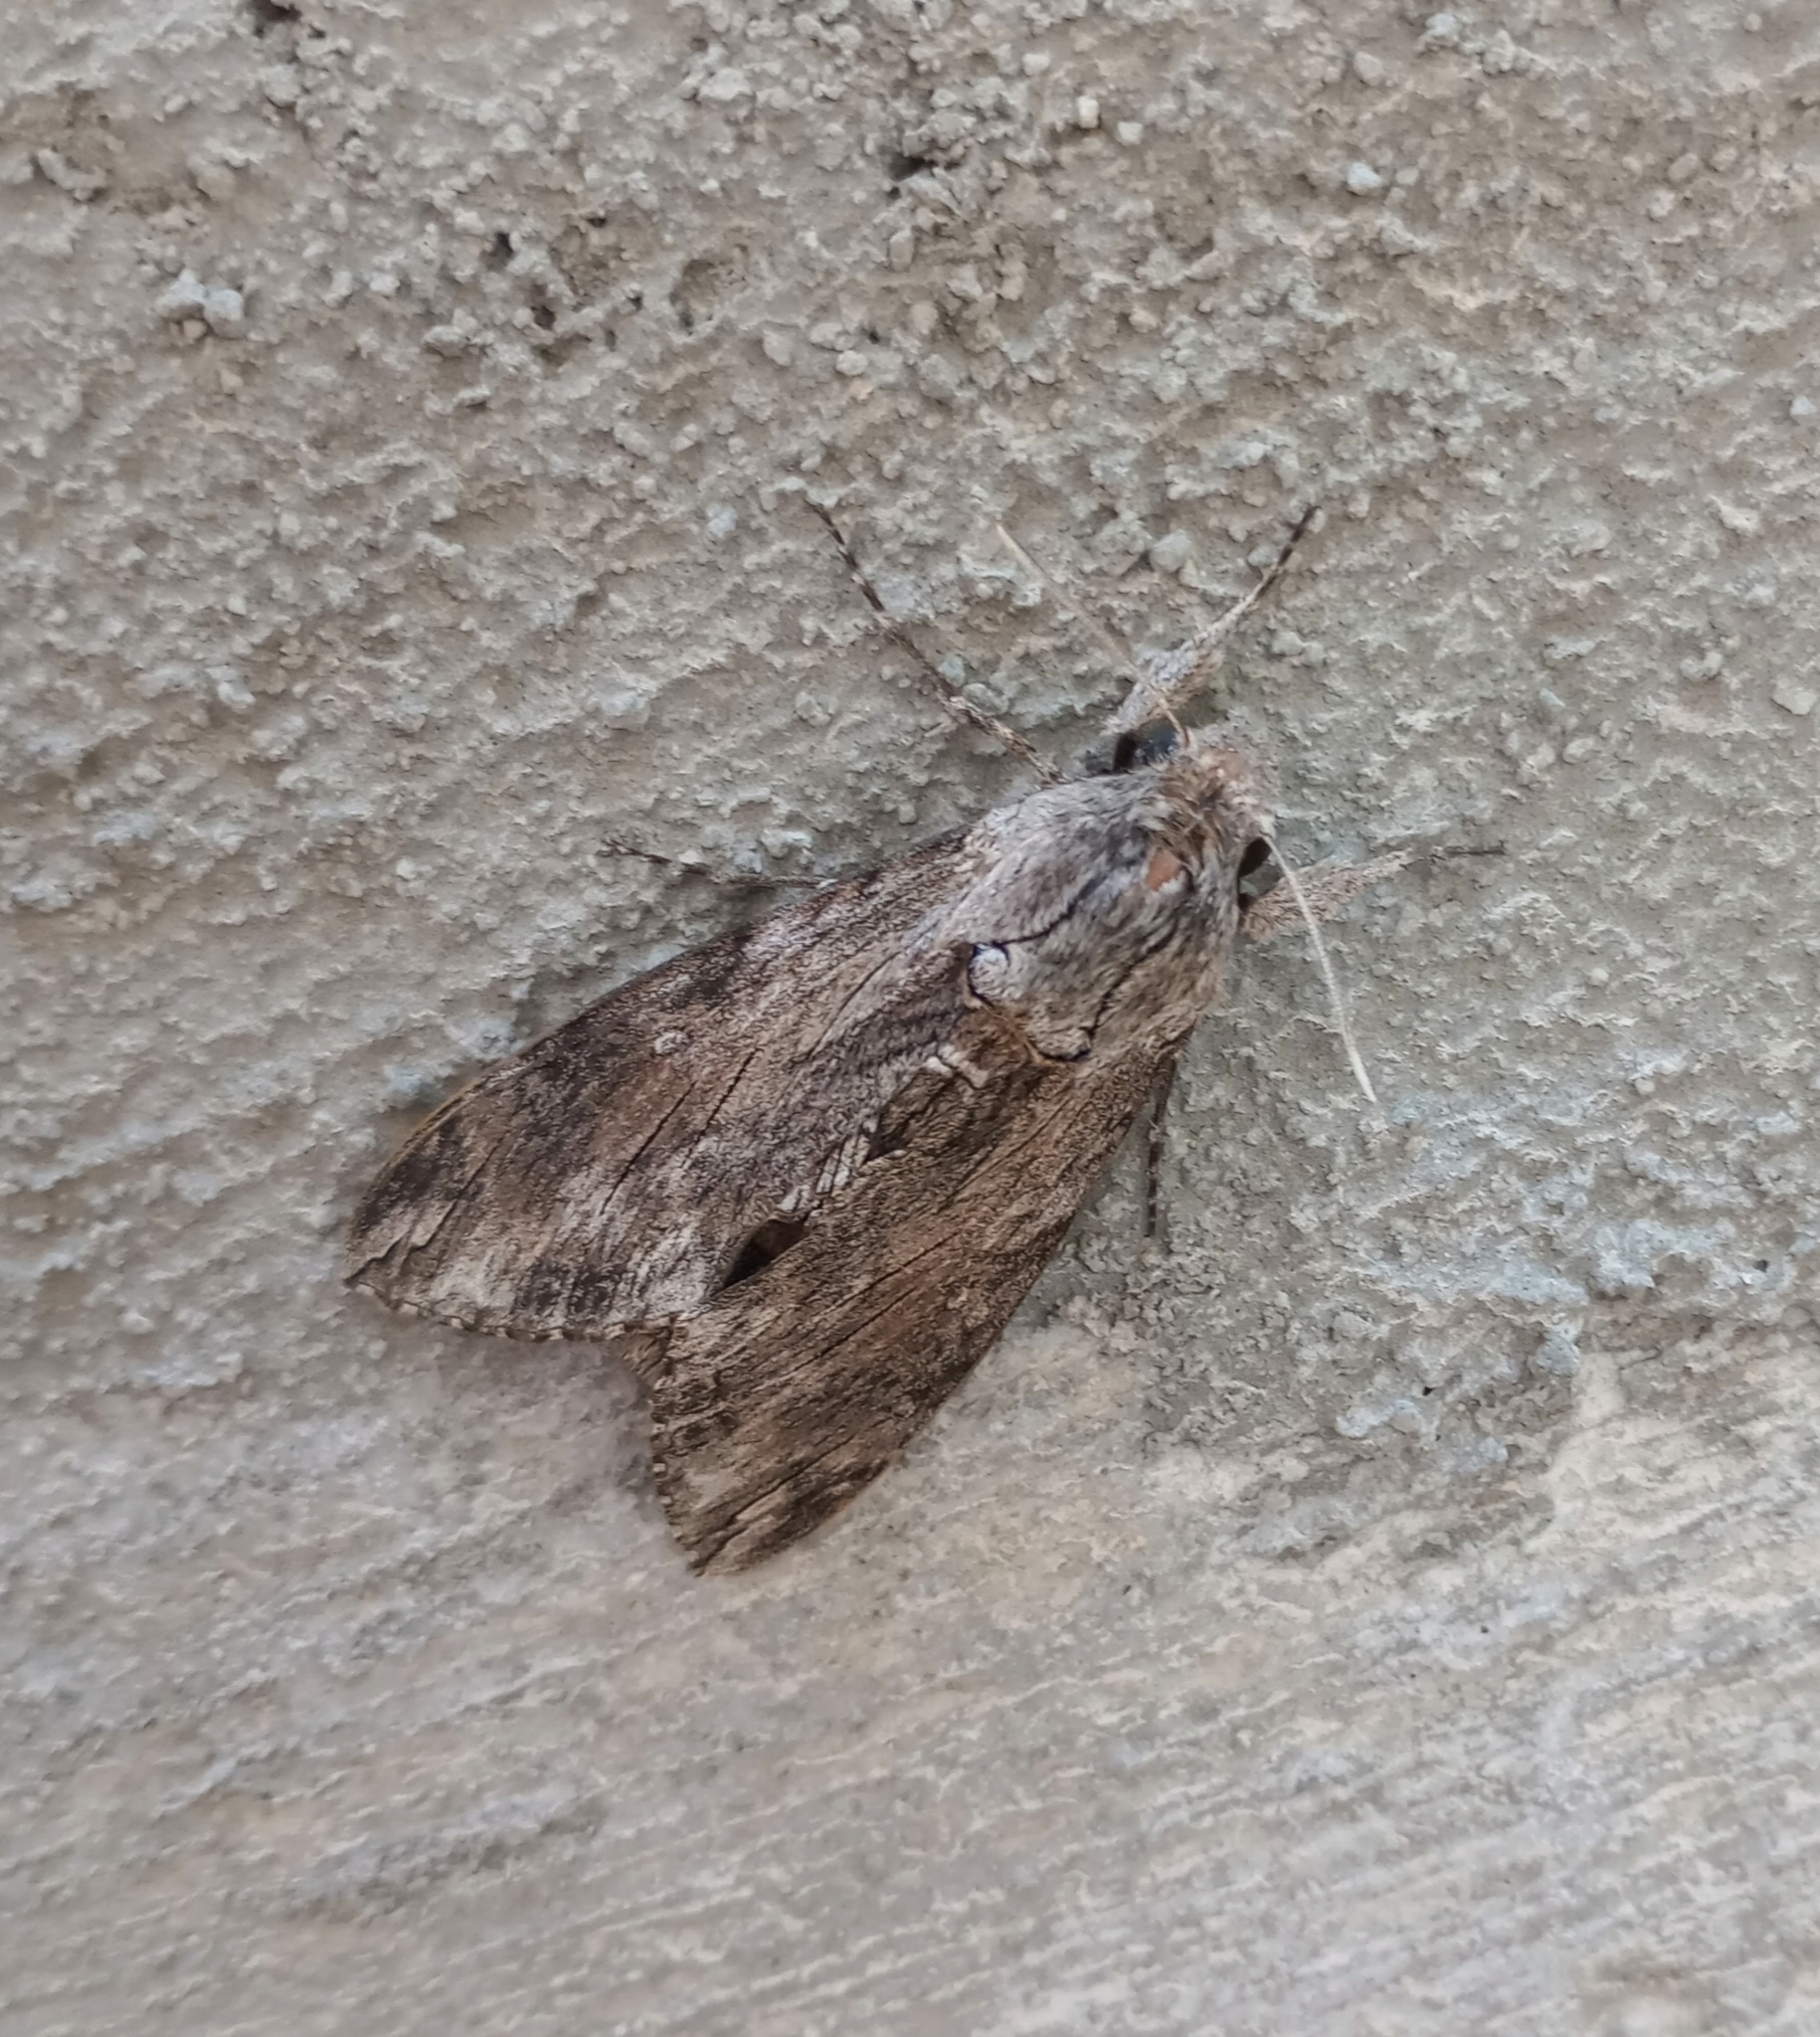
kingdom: Animalia
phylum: Arthropoda
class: Insecta
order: Lepidoptera
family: Sphingidae
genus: Agrius
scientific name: Agrius convolvuli
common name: Convolvulus hawkmoth
